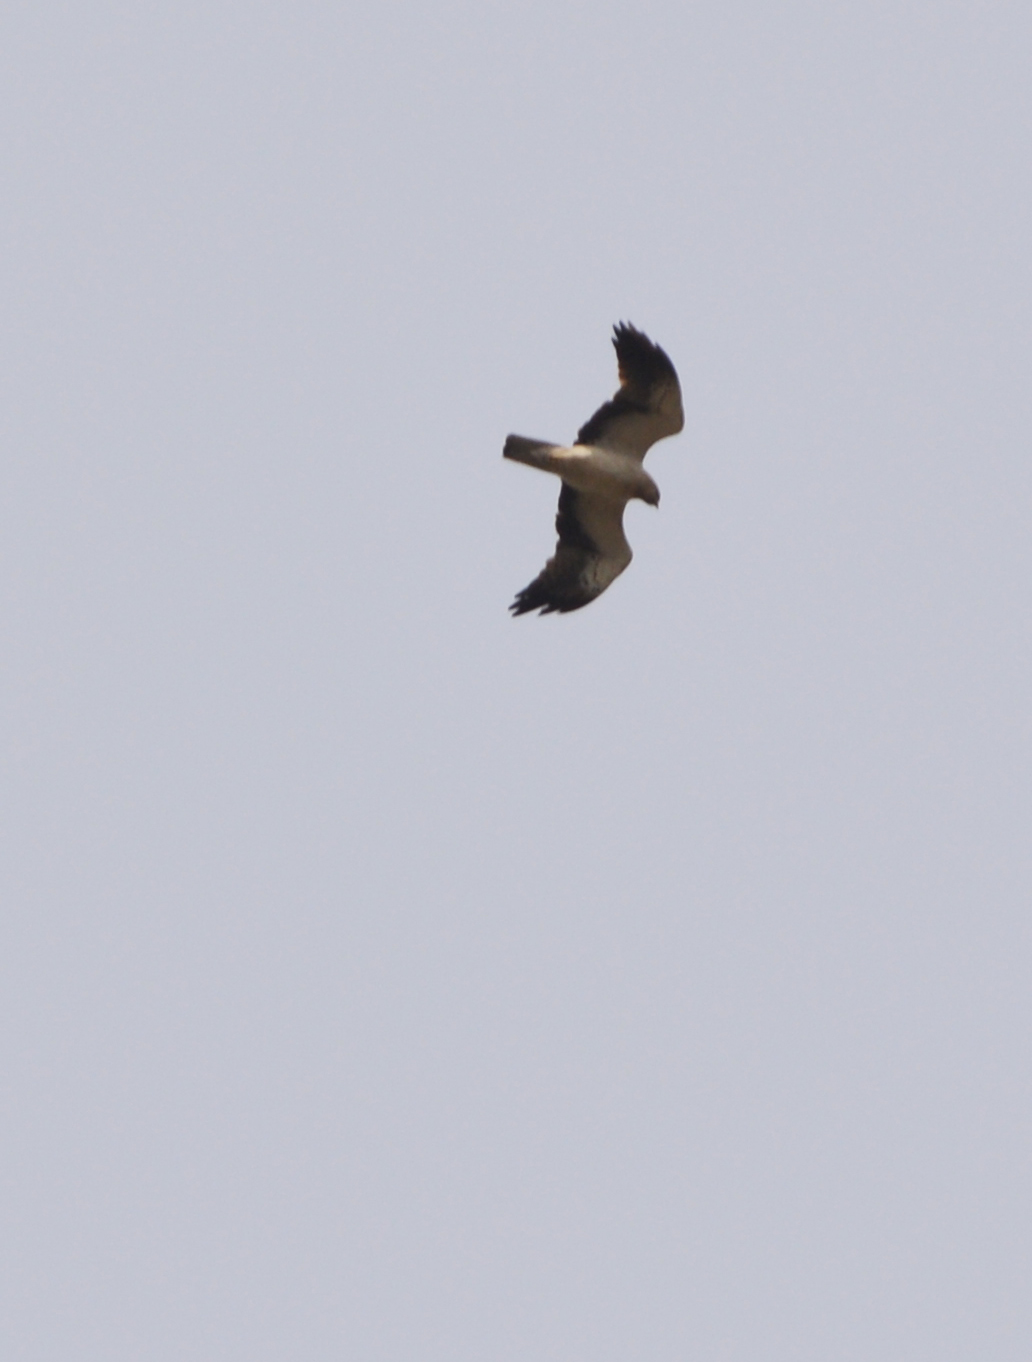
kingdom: Animalia
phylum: Chordata
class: Aves
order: Accipitriformes
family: Accipitridae
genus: Hieraaetus
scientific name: Hieraaetus pennatus
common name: Booted eagle
